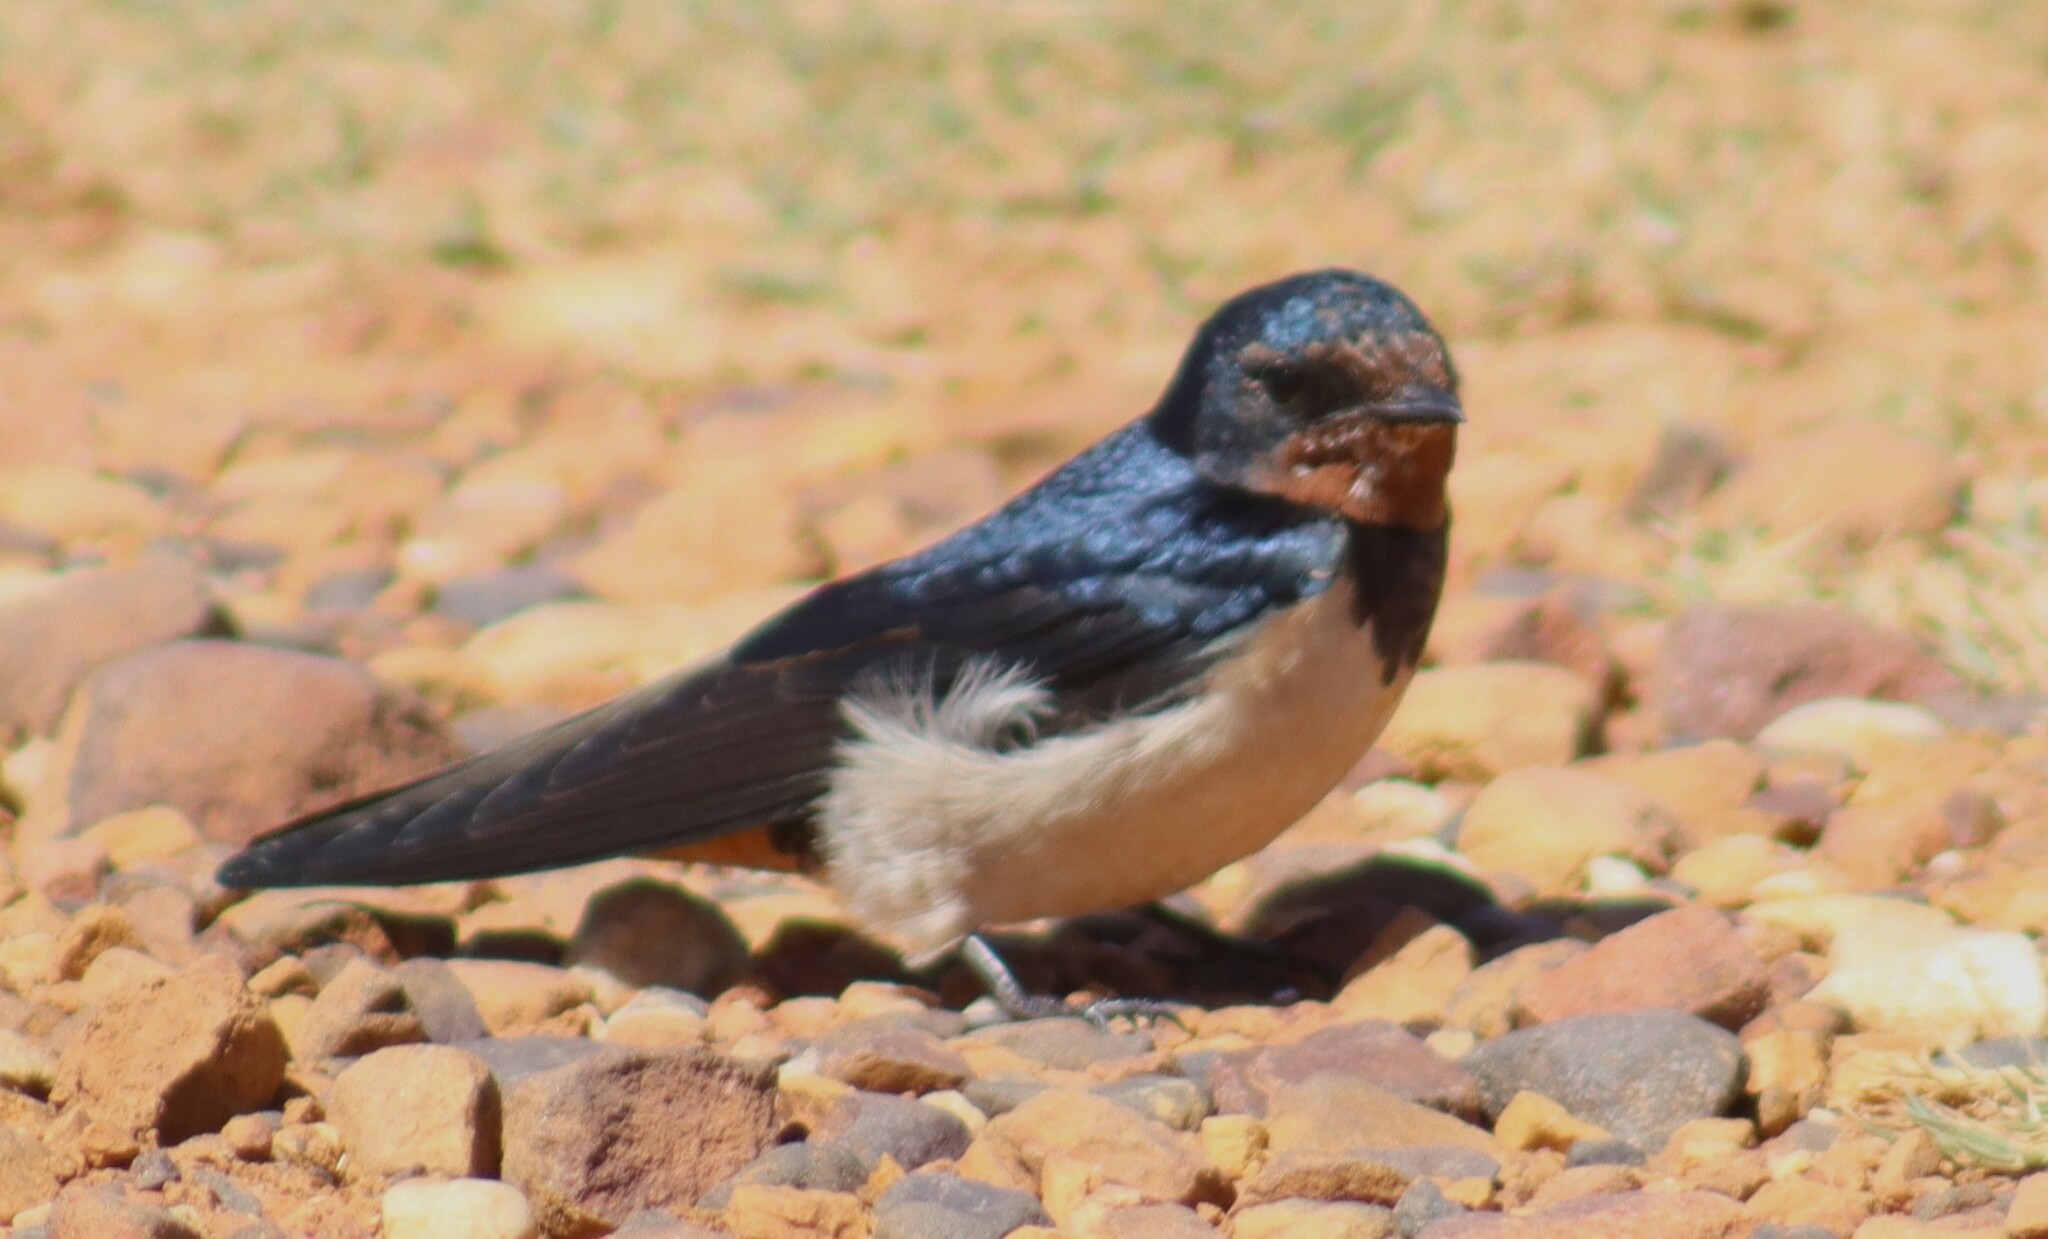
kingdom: Animalia
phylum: Chordata
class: Aves
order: Passeriformes
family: Hirundinidae
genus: Hirundo
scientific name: Hirundo rustica
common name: Barn swallow
